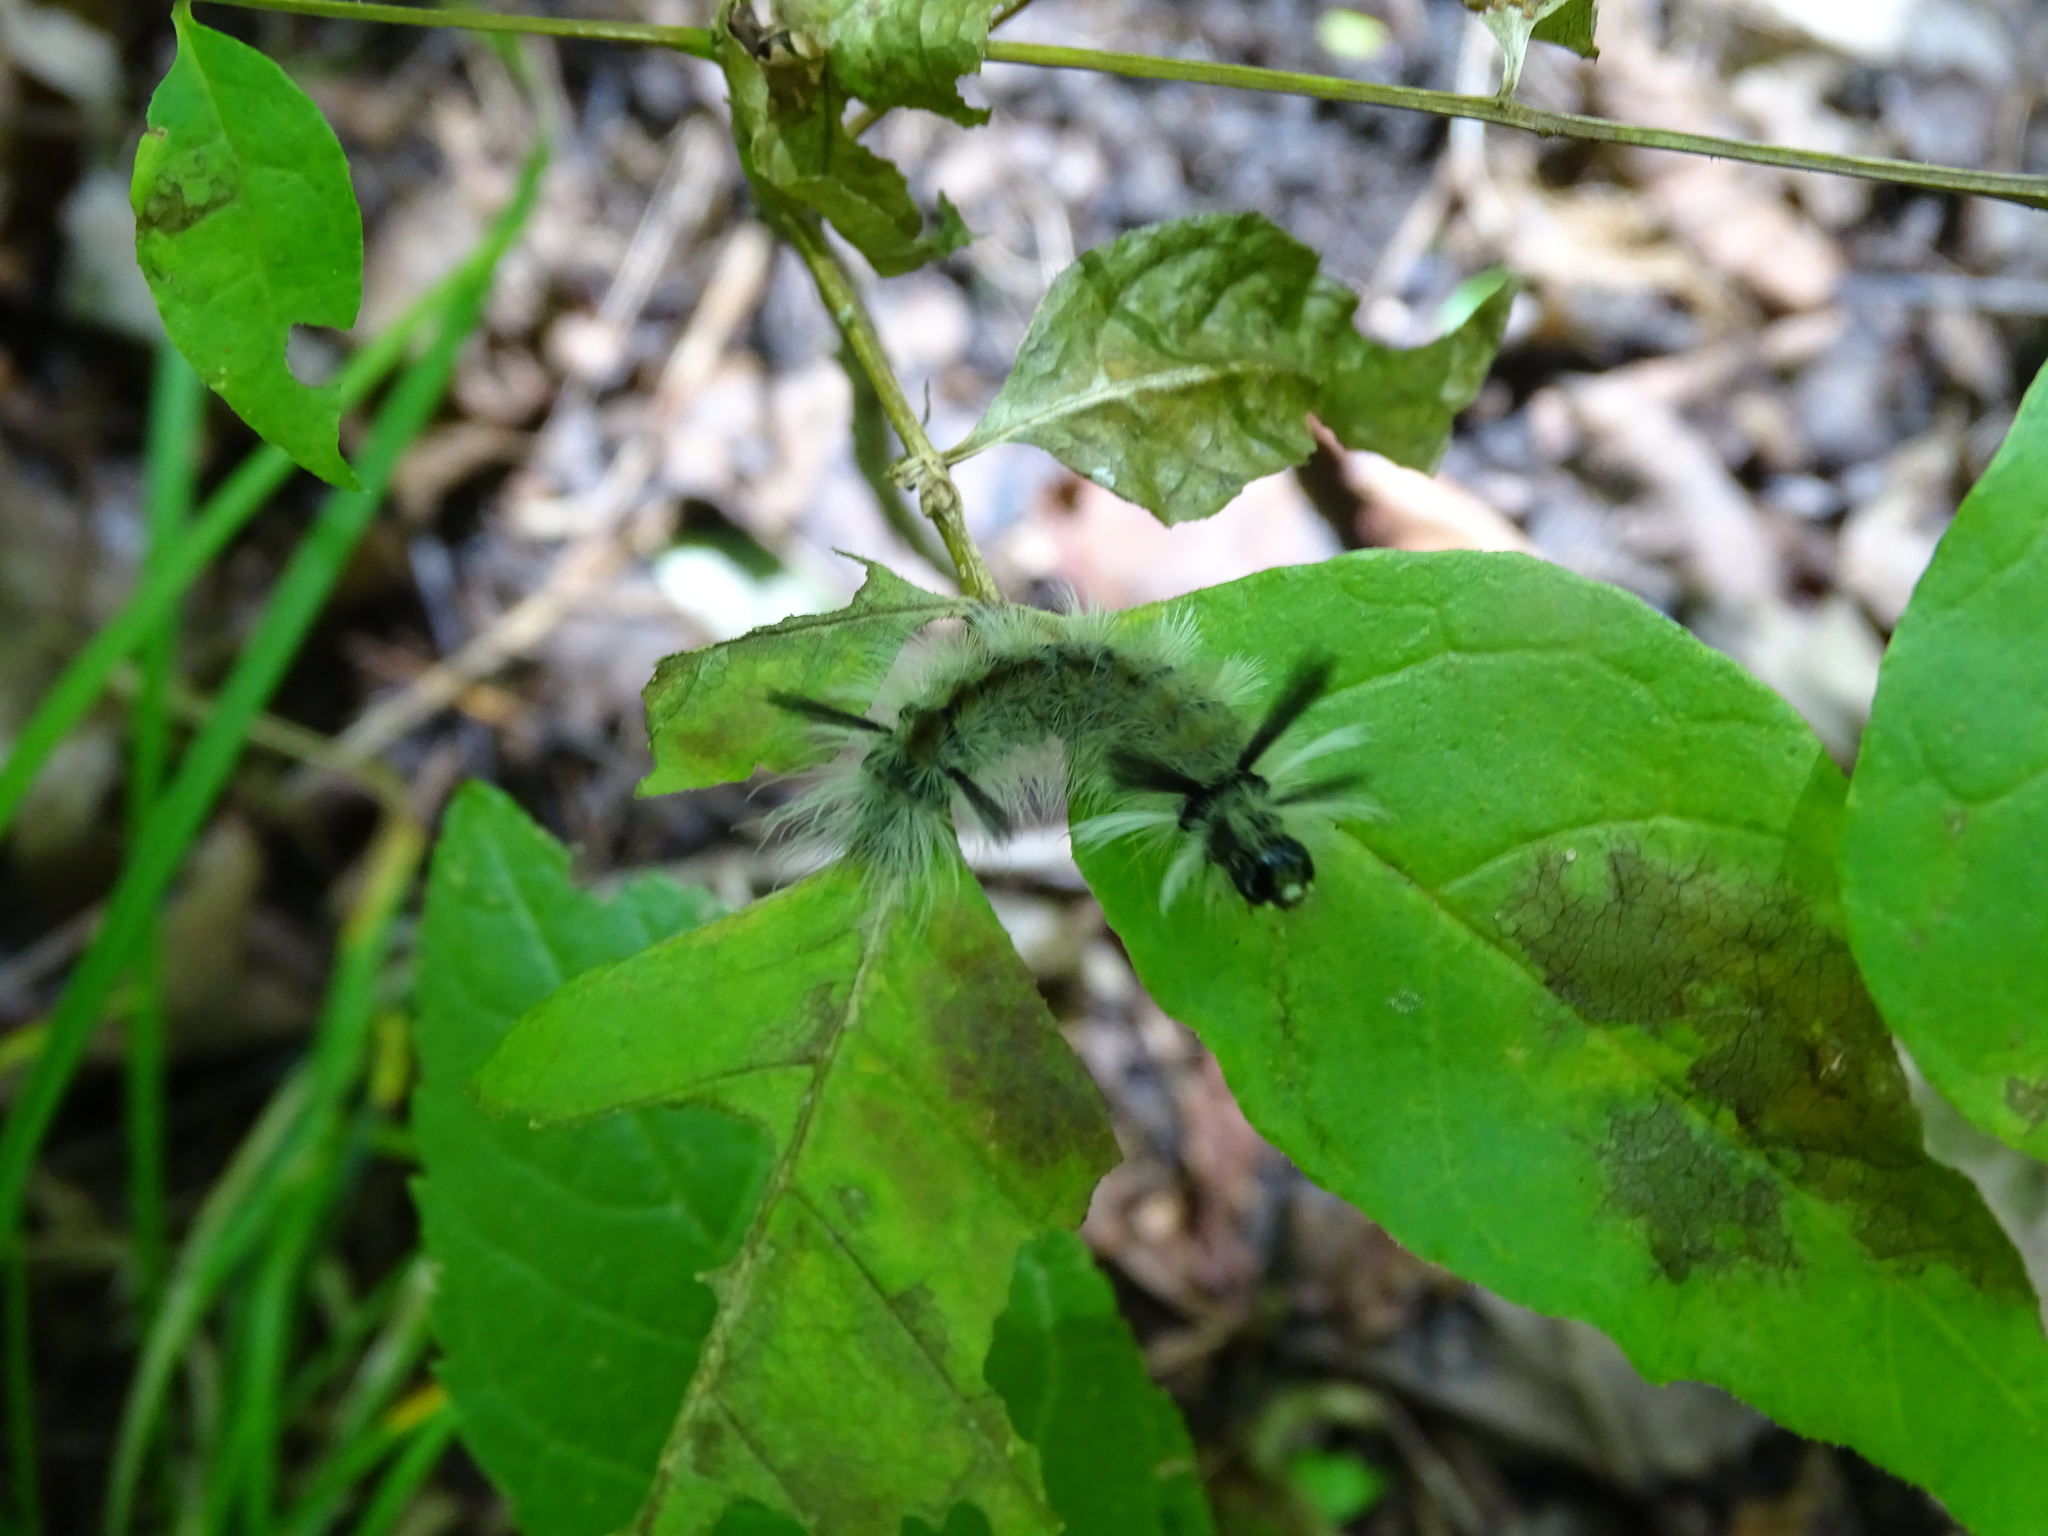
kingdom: Animalia
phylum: Arthropoda
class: Insecta
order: Lepidoptera
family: Erebidae
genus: Halysidota
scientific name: Halysidota tessellaris
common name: Banded tussock moth
